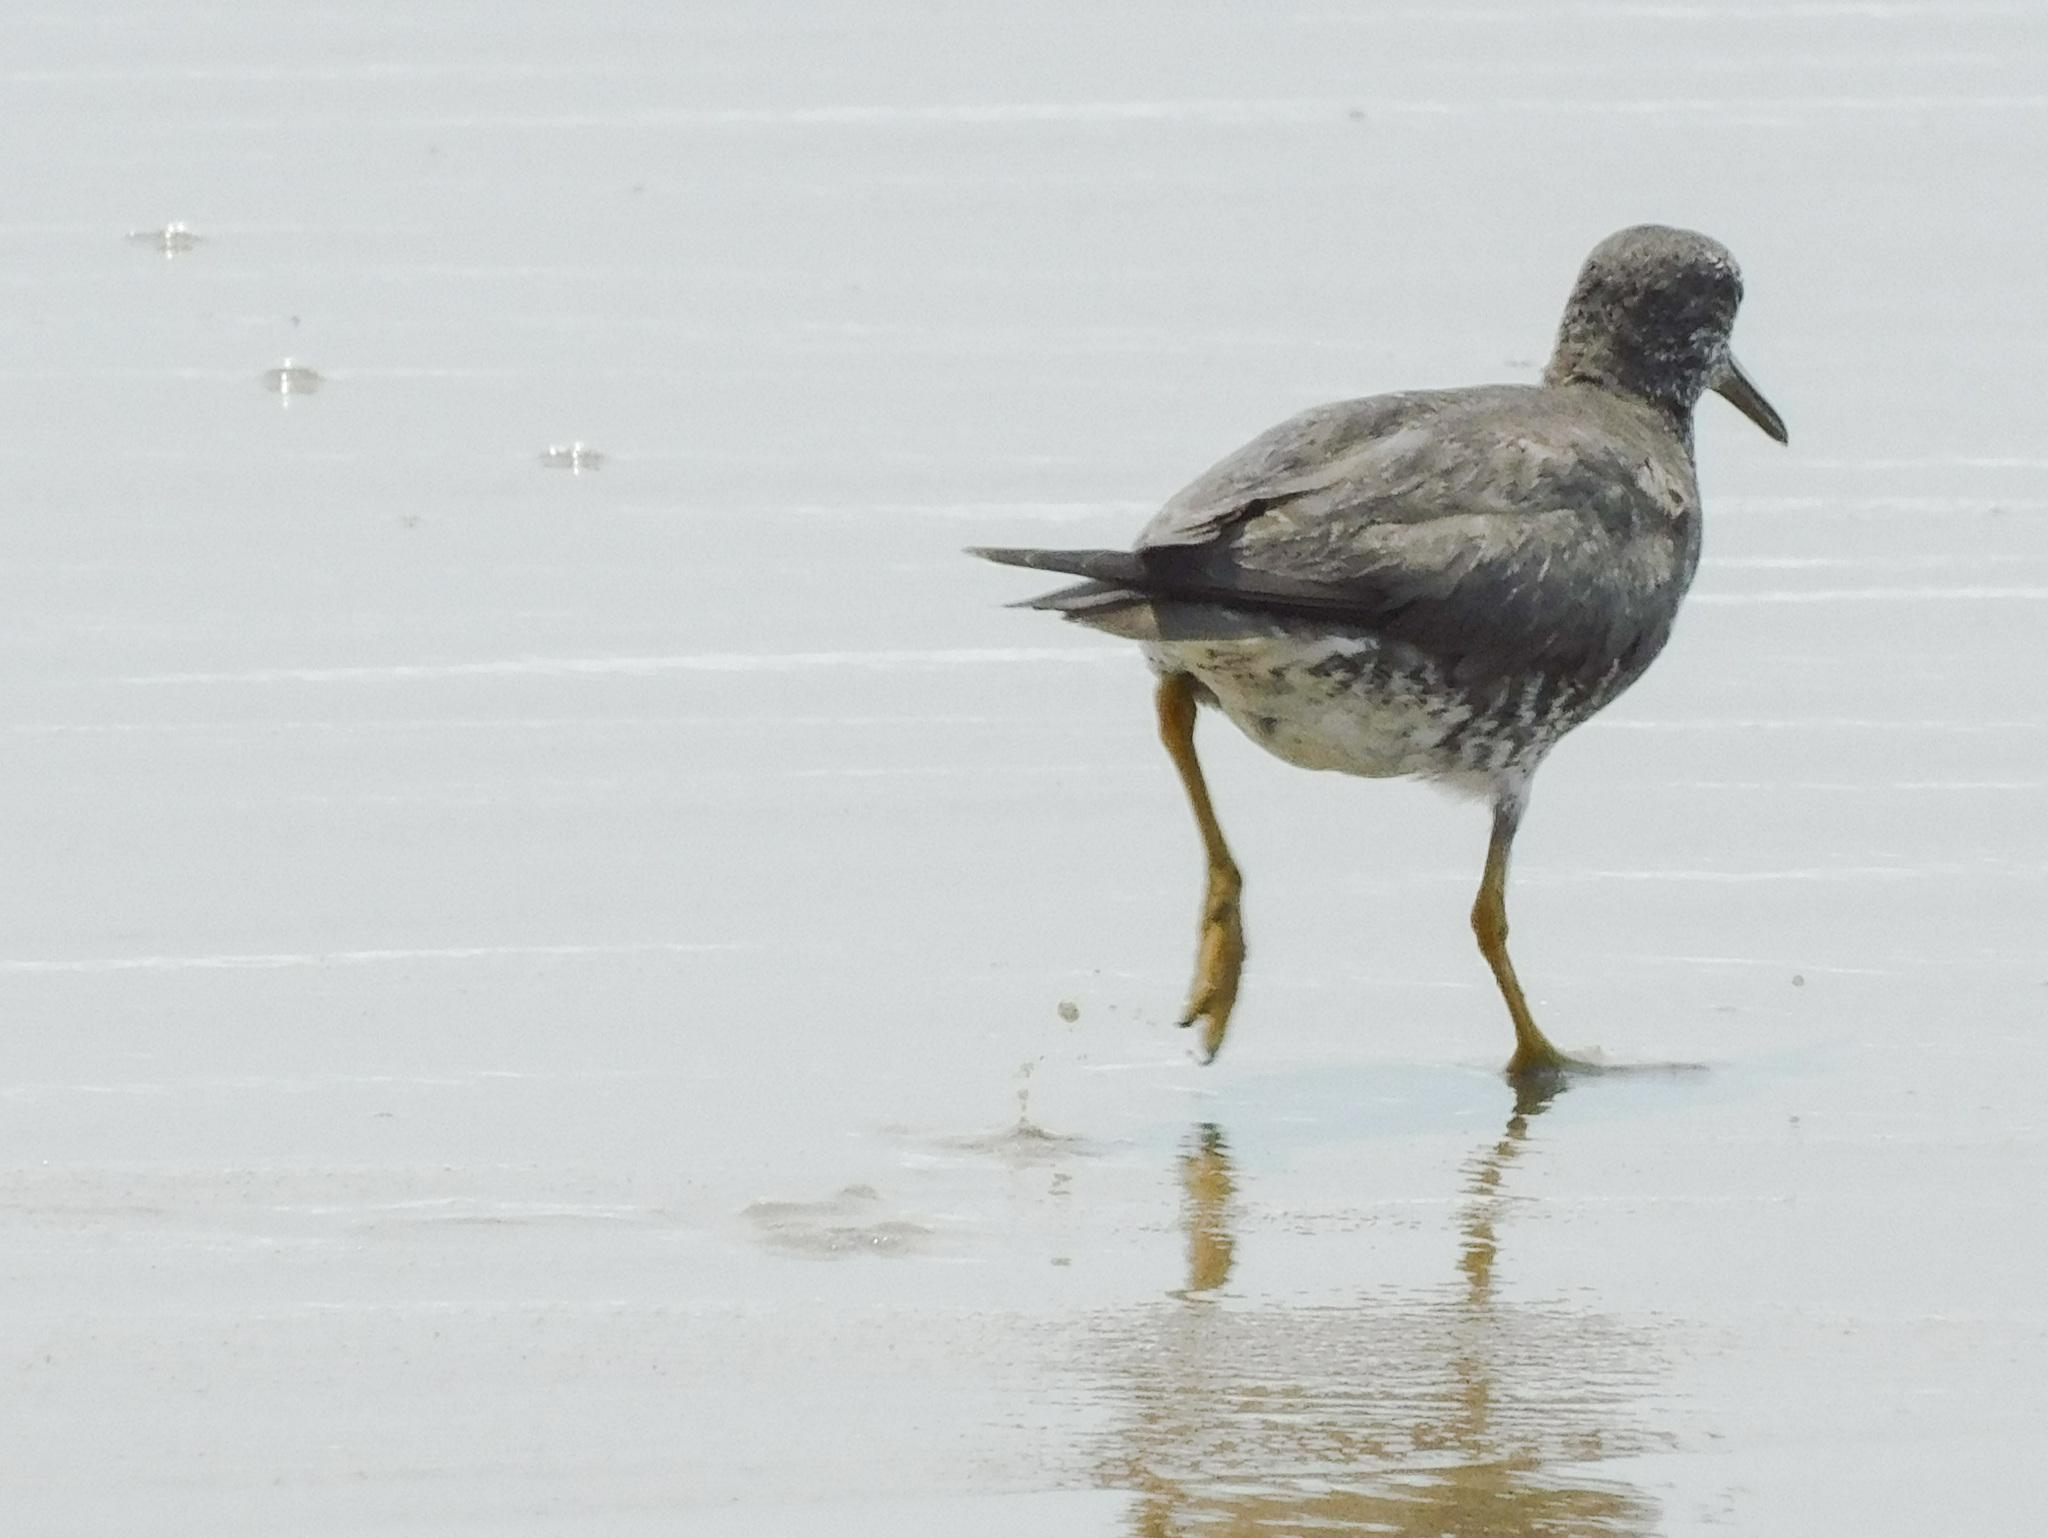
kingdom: Animalia
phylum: Chordata
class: Aves
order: Charadriiformes
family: Scolopacidae
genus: Tringa
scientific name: Tringa incana
